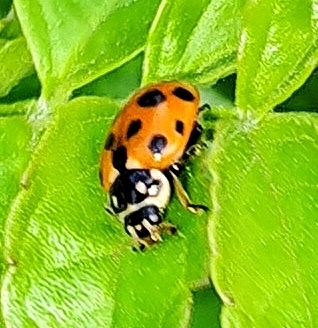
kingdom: Animalia
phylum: Arthropoda
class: Insecta
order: Coleoptera
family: Coccinellidae
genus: Hippodamia
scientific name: Hippodamia variegata
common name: Ladybird beetle
